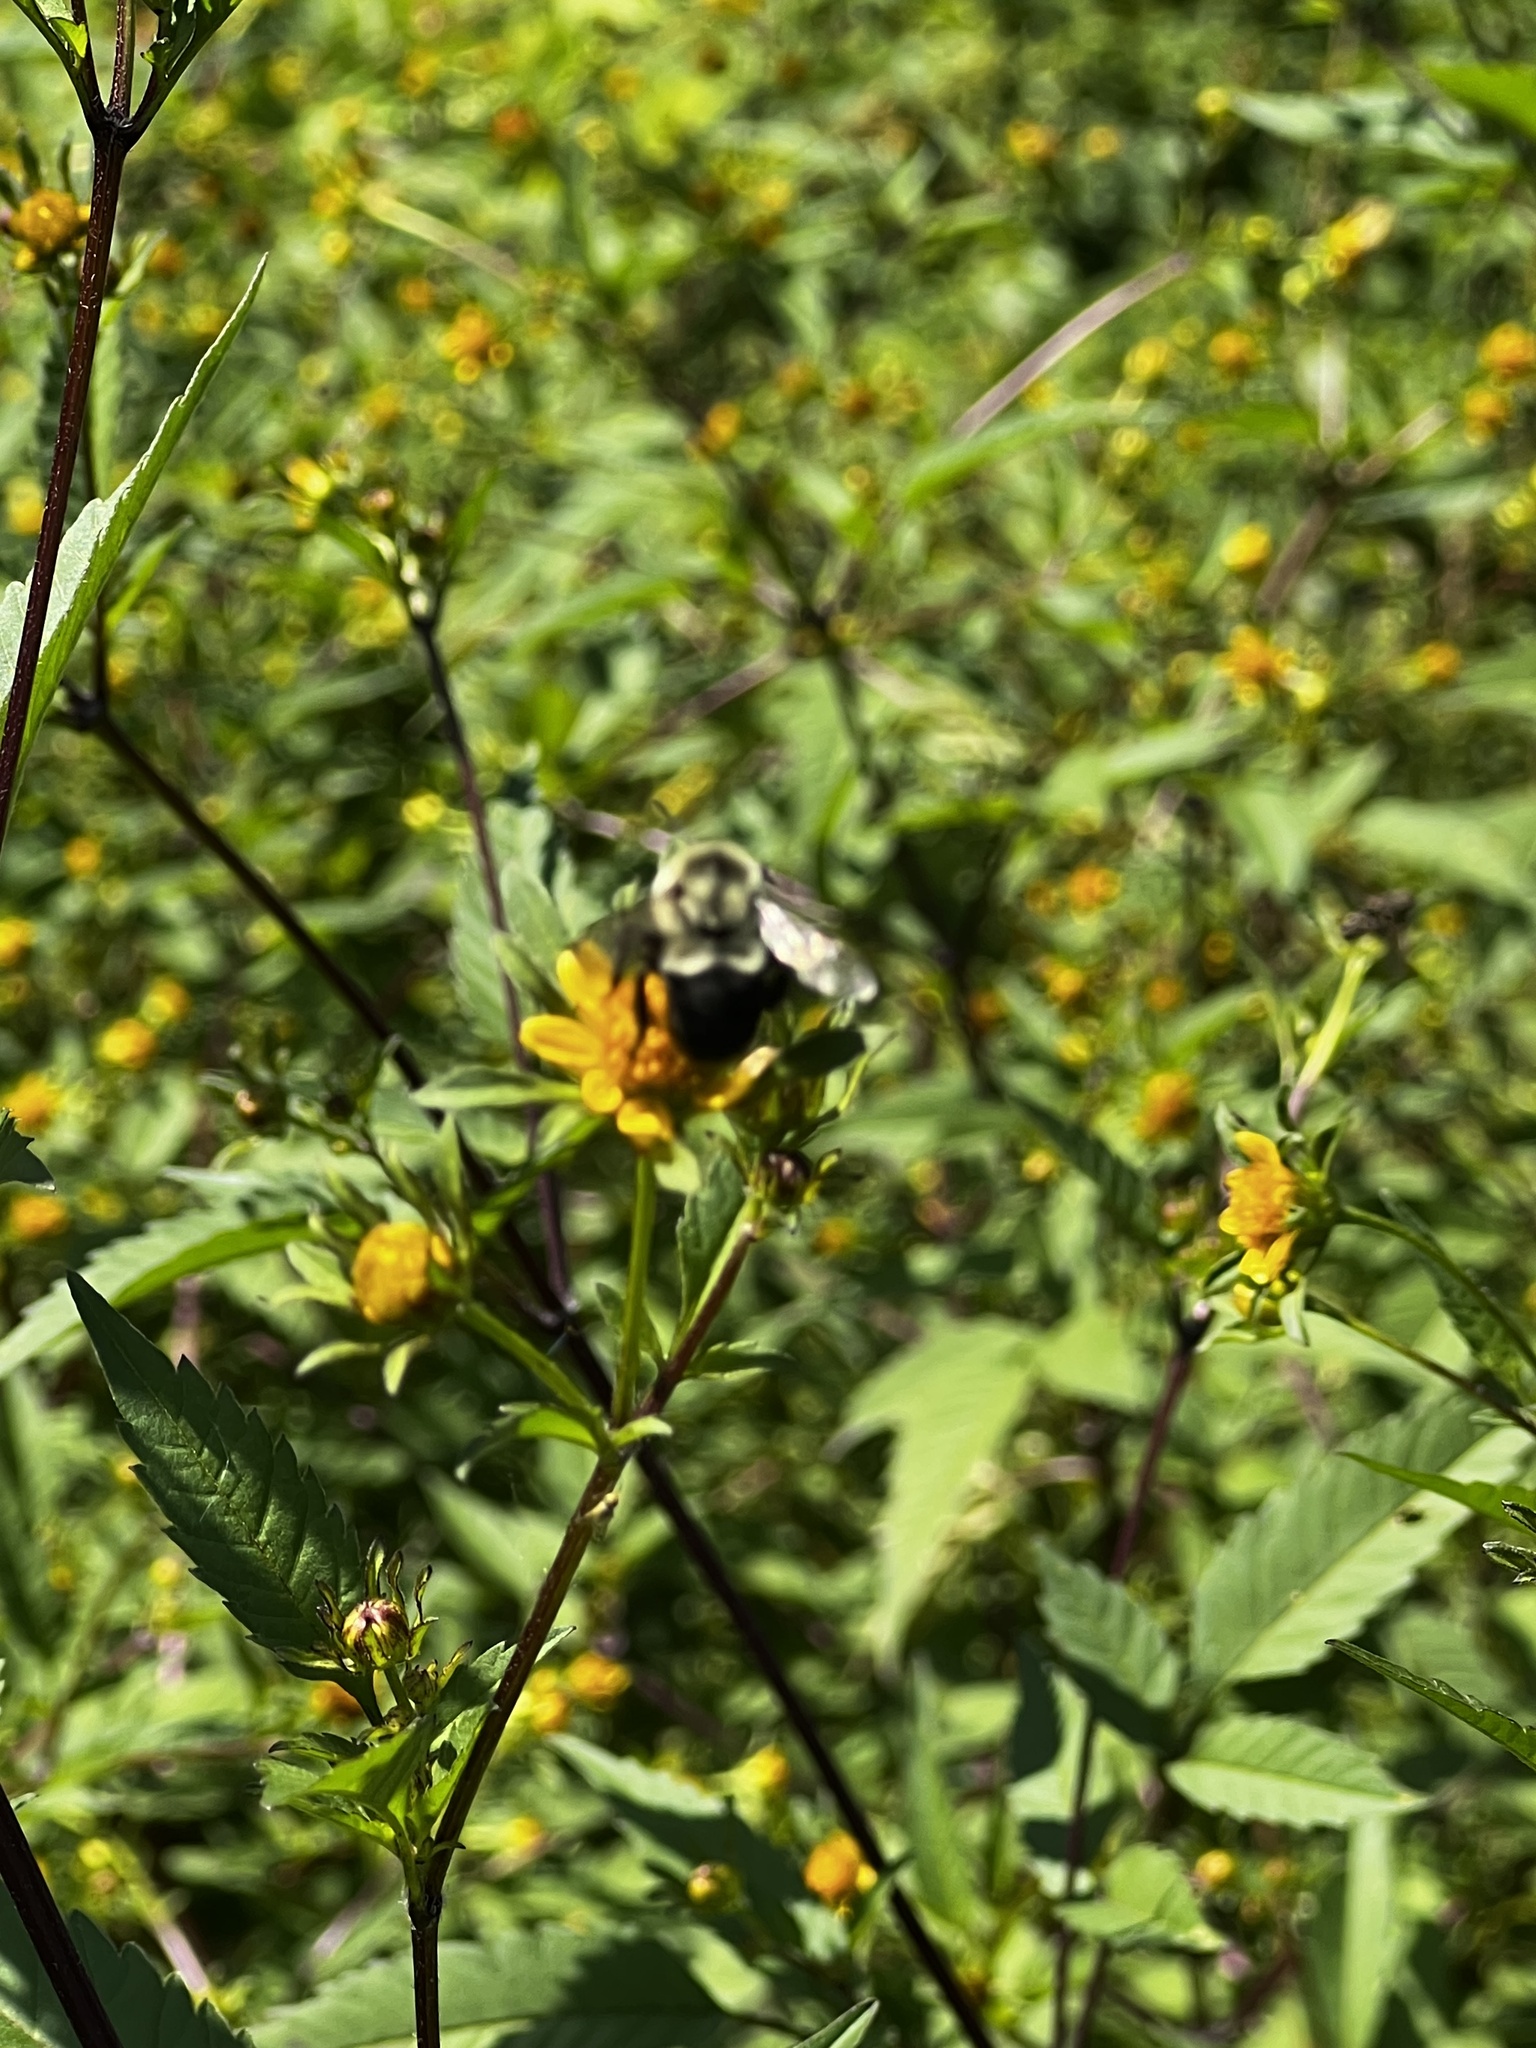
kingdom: Animalia
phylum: Arthropoda
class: Insecta
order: Hymenoptera
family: Apidae
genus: Bombus
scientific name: Bombus impatiens
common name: Common eastern bumble bee
